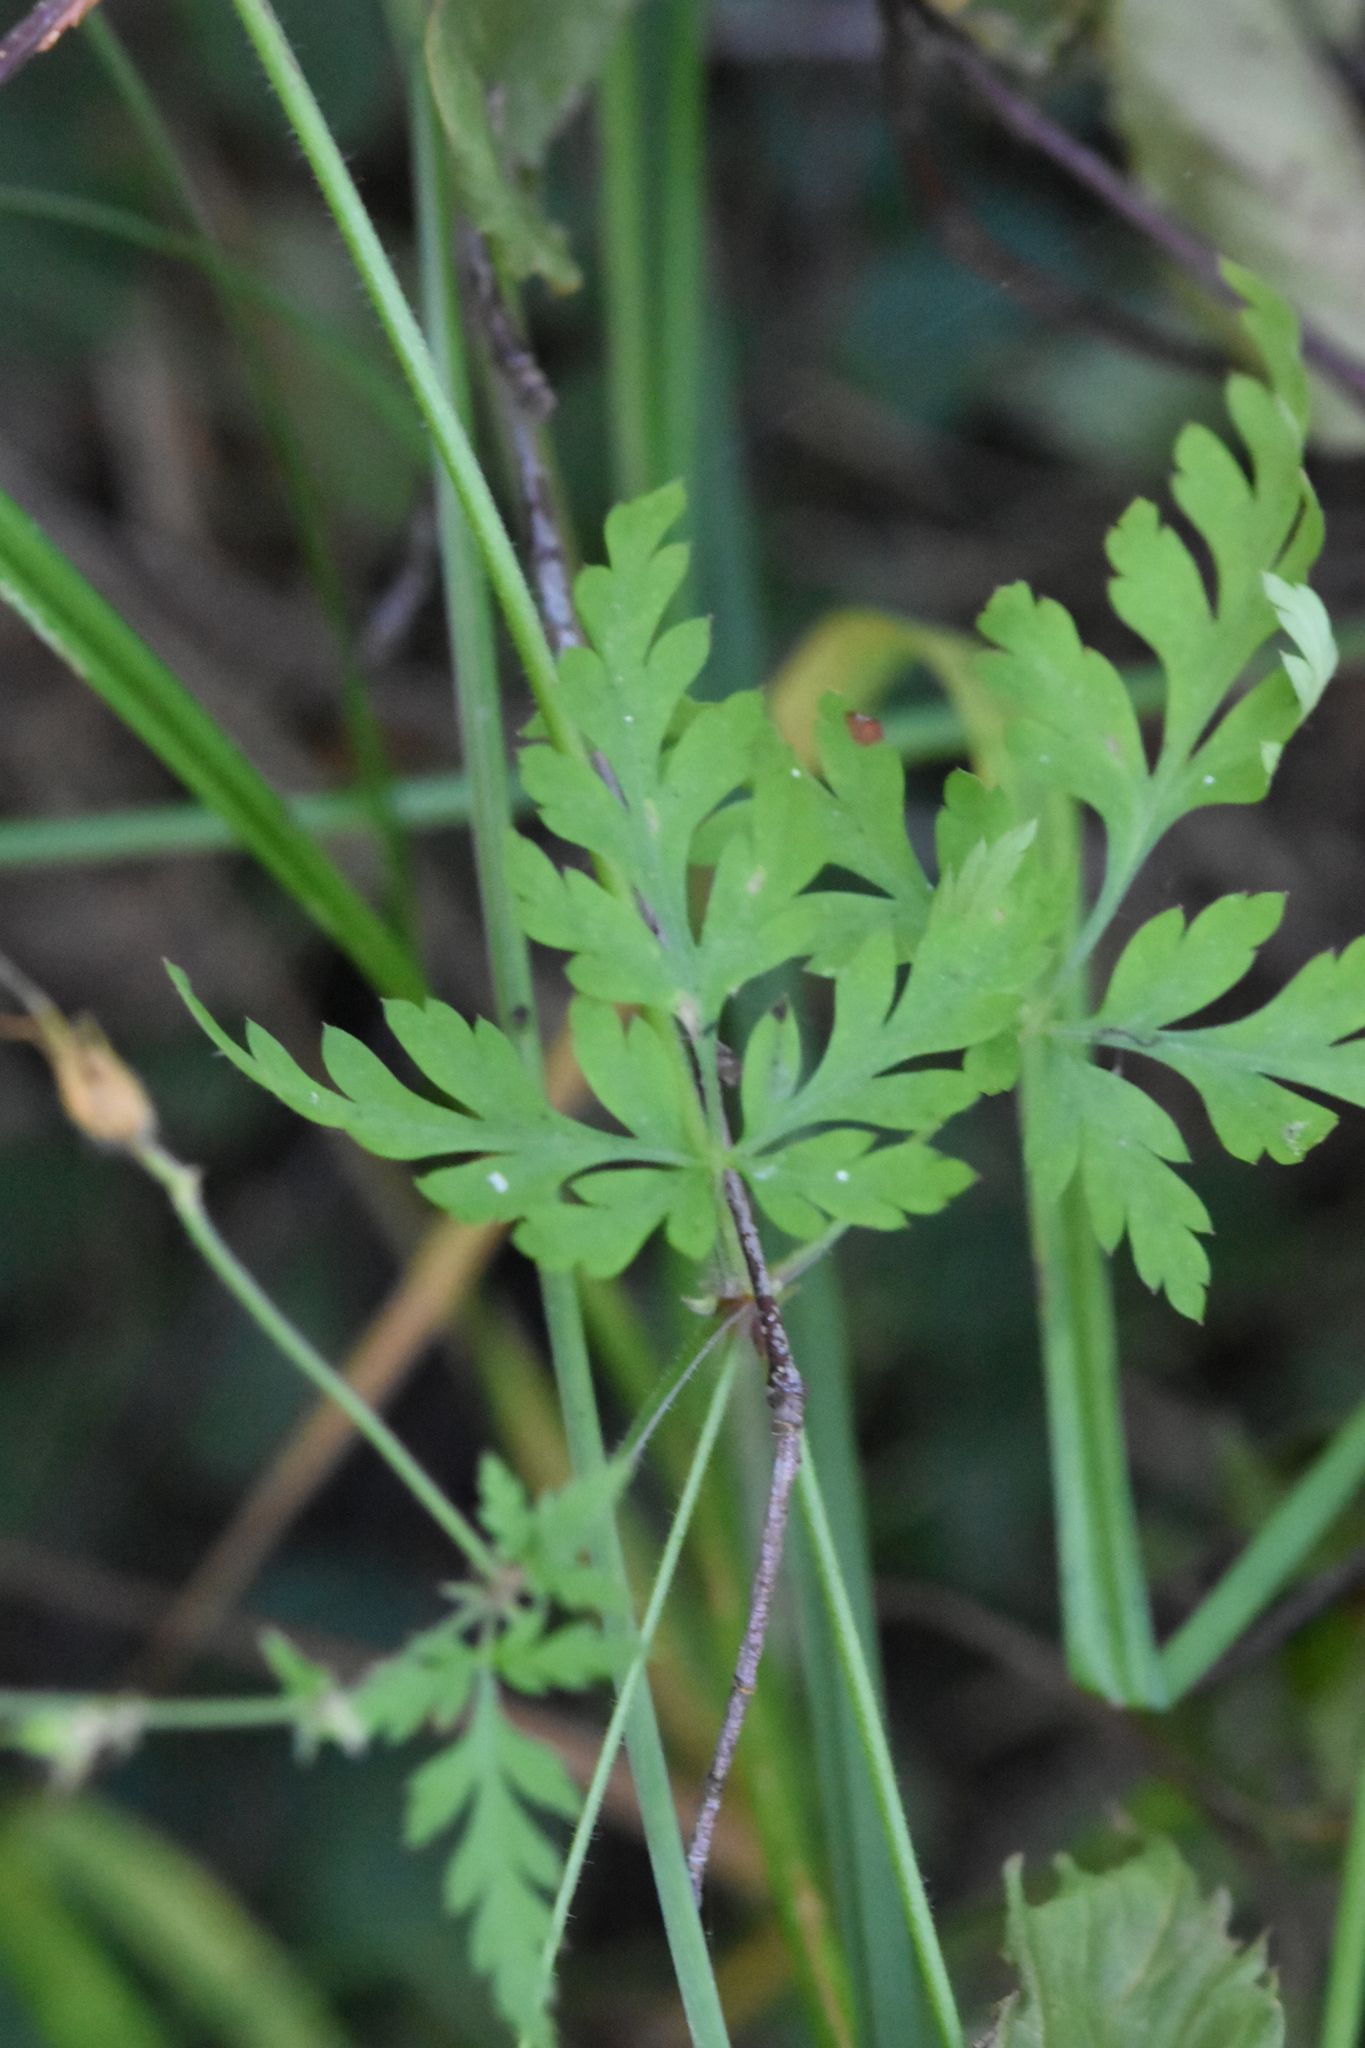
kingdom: Plantae
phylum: Tracheophyta
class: Magnoliopsida
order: Geraniales
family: Geraniaceae
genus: Geranium
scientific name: Geranium robertianum
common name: Herb-robert
